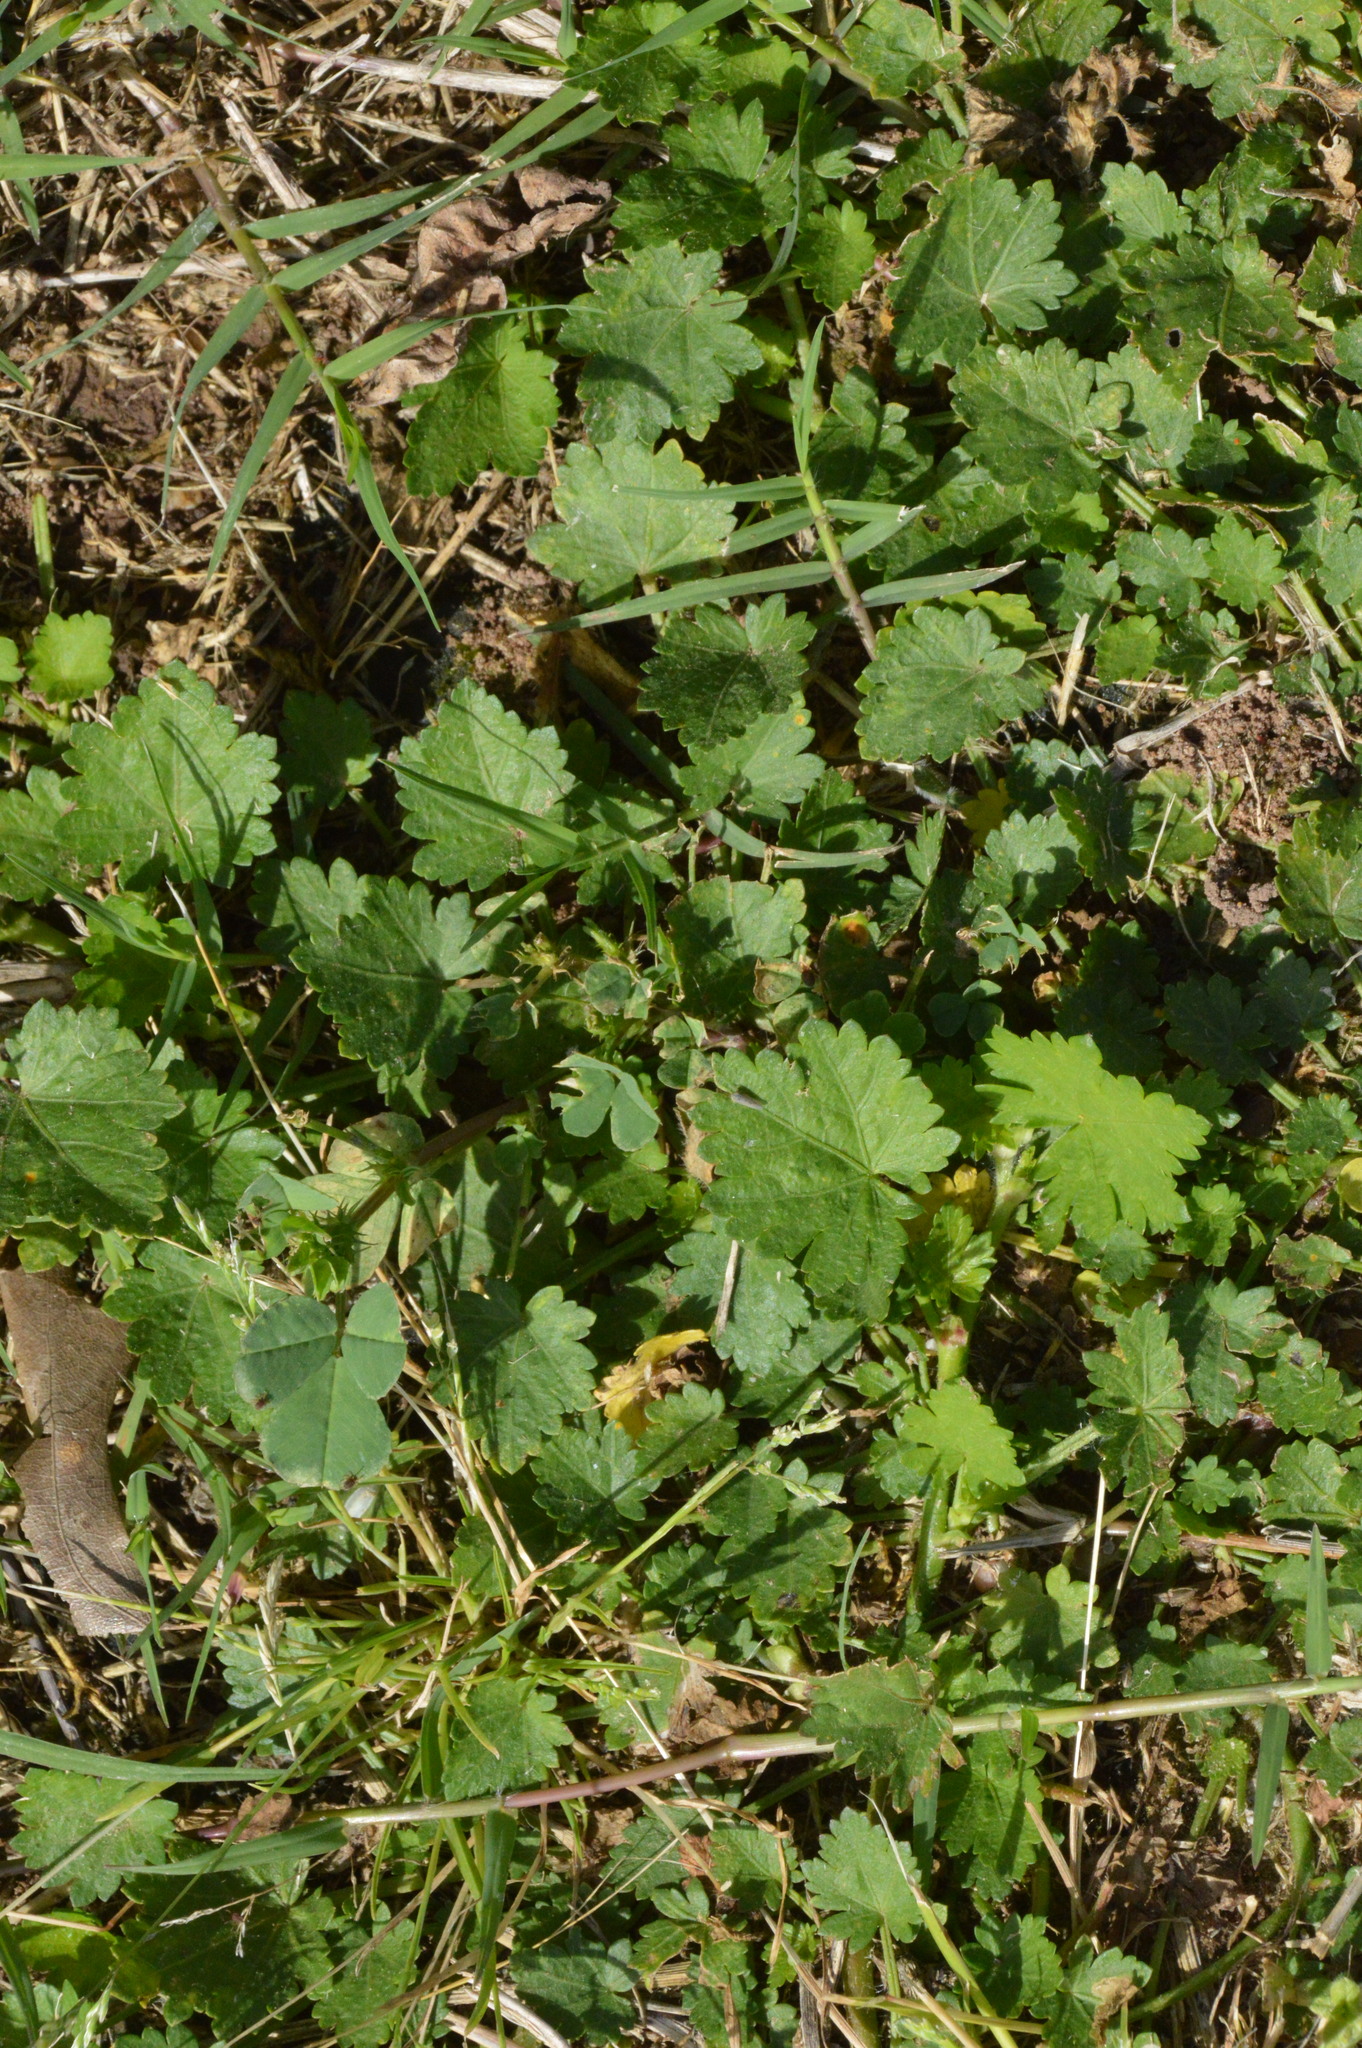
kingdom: Plantae
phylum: Tracheophyta
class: Magnoliopsida
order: Malvales
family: Malvaceae
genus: Modiola
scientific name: Modiola caroliniana
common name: Carolina bristlemallow
